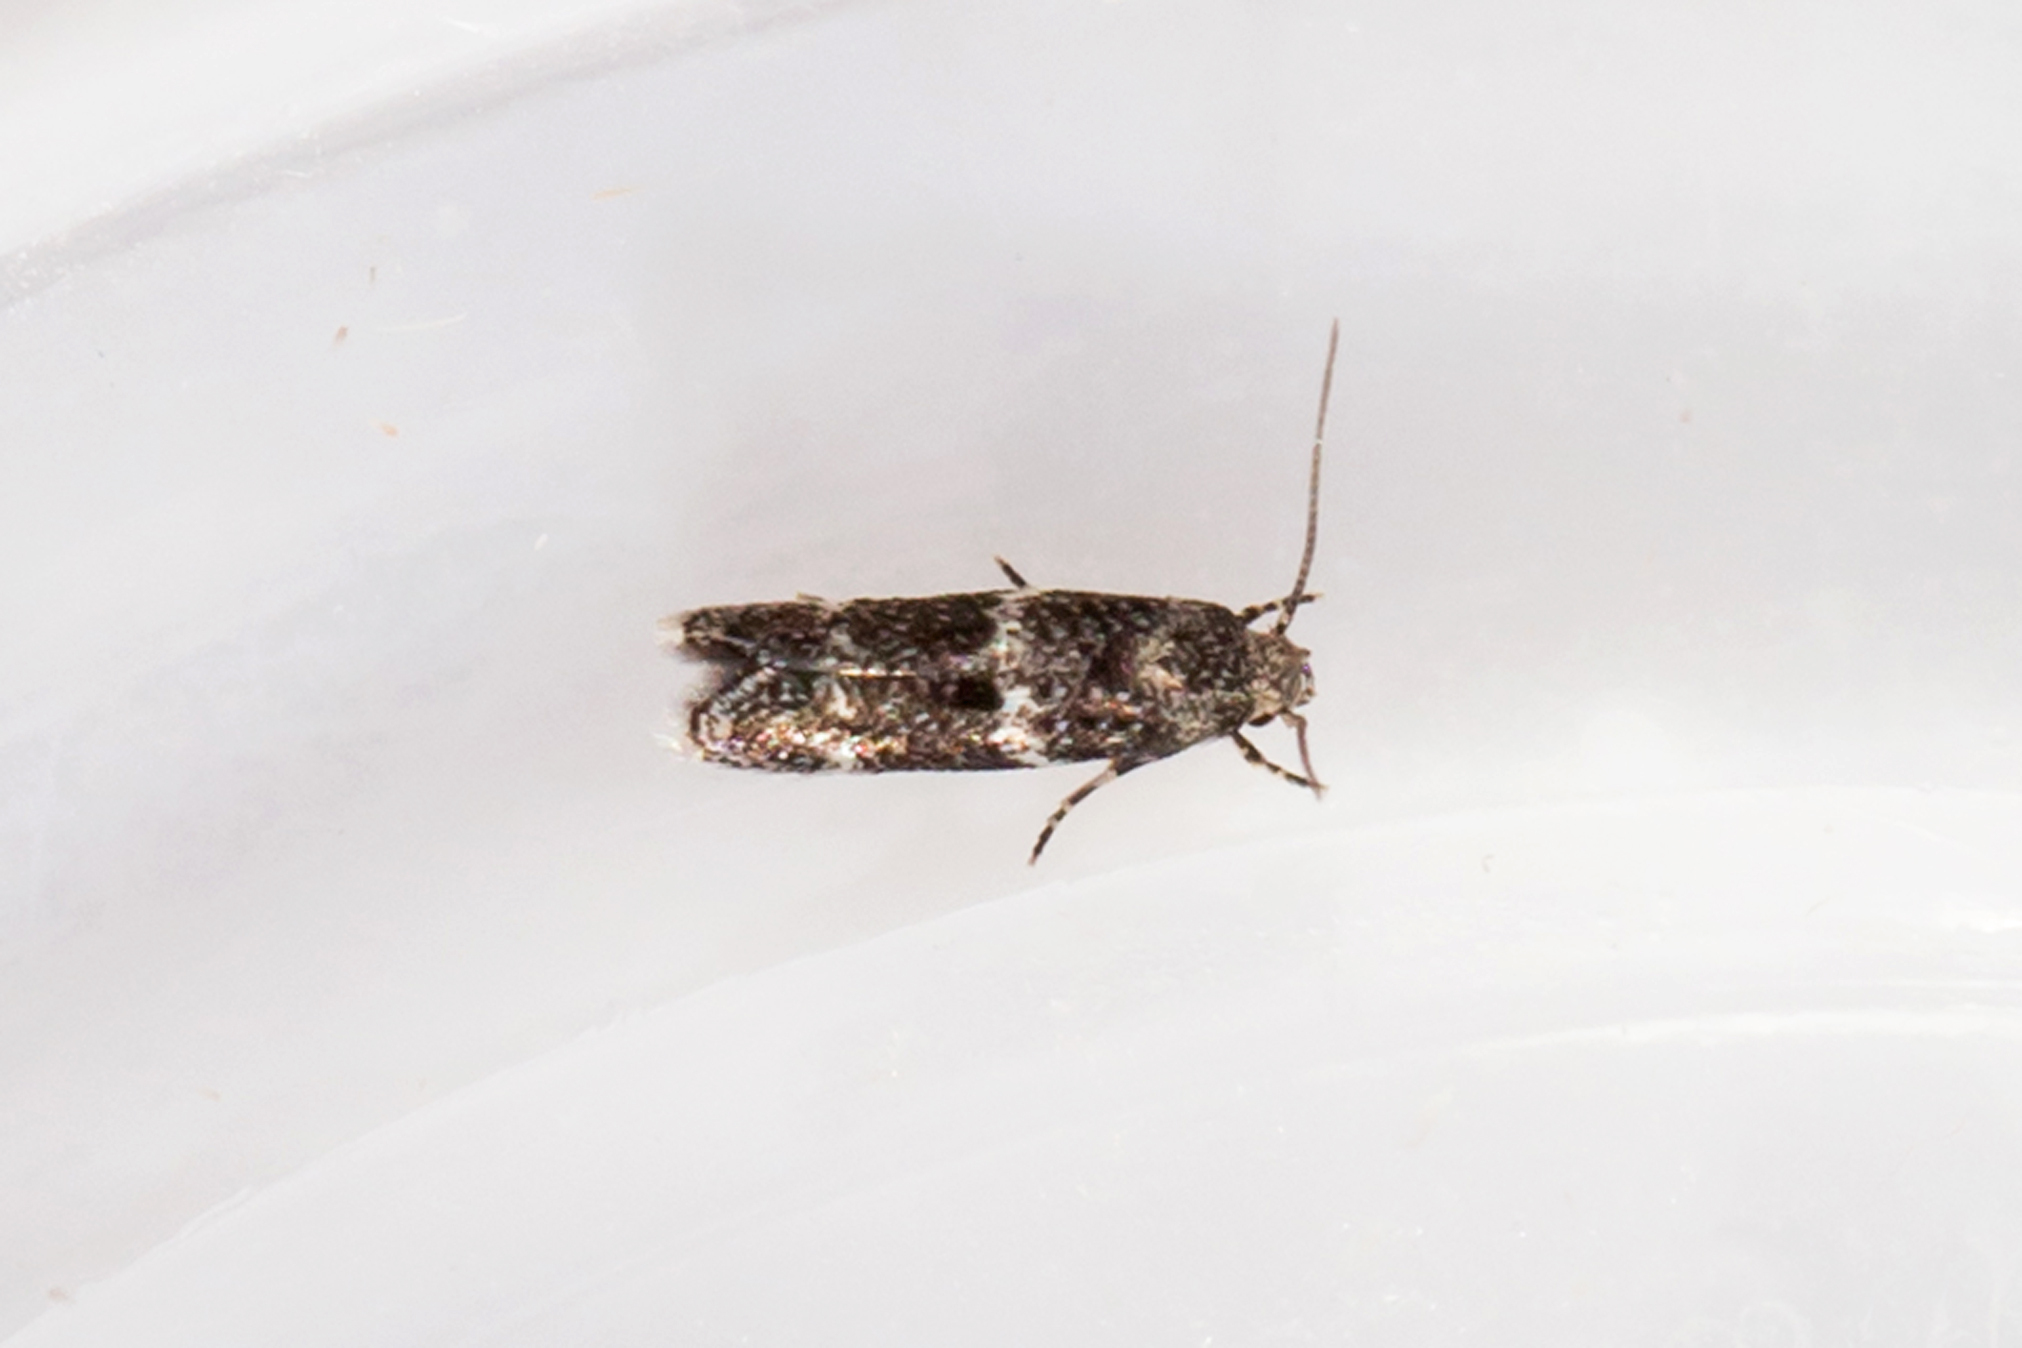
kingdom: Animalia
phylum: Arthropoda
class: Insecta
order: Lepidoptera
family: Elachistidae
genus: Elachista
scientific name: Elachista illectella
